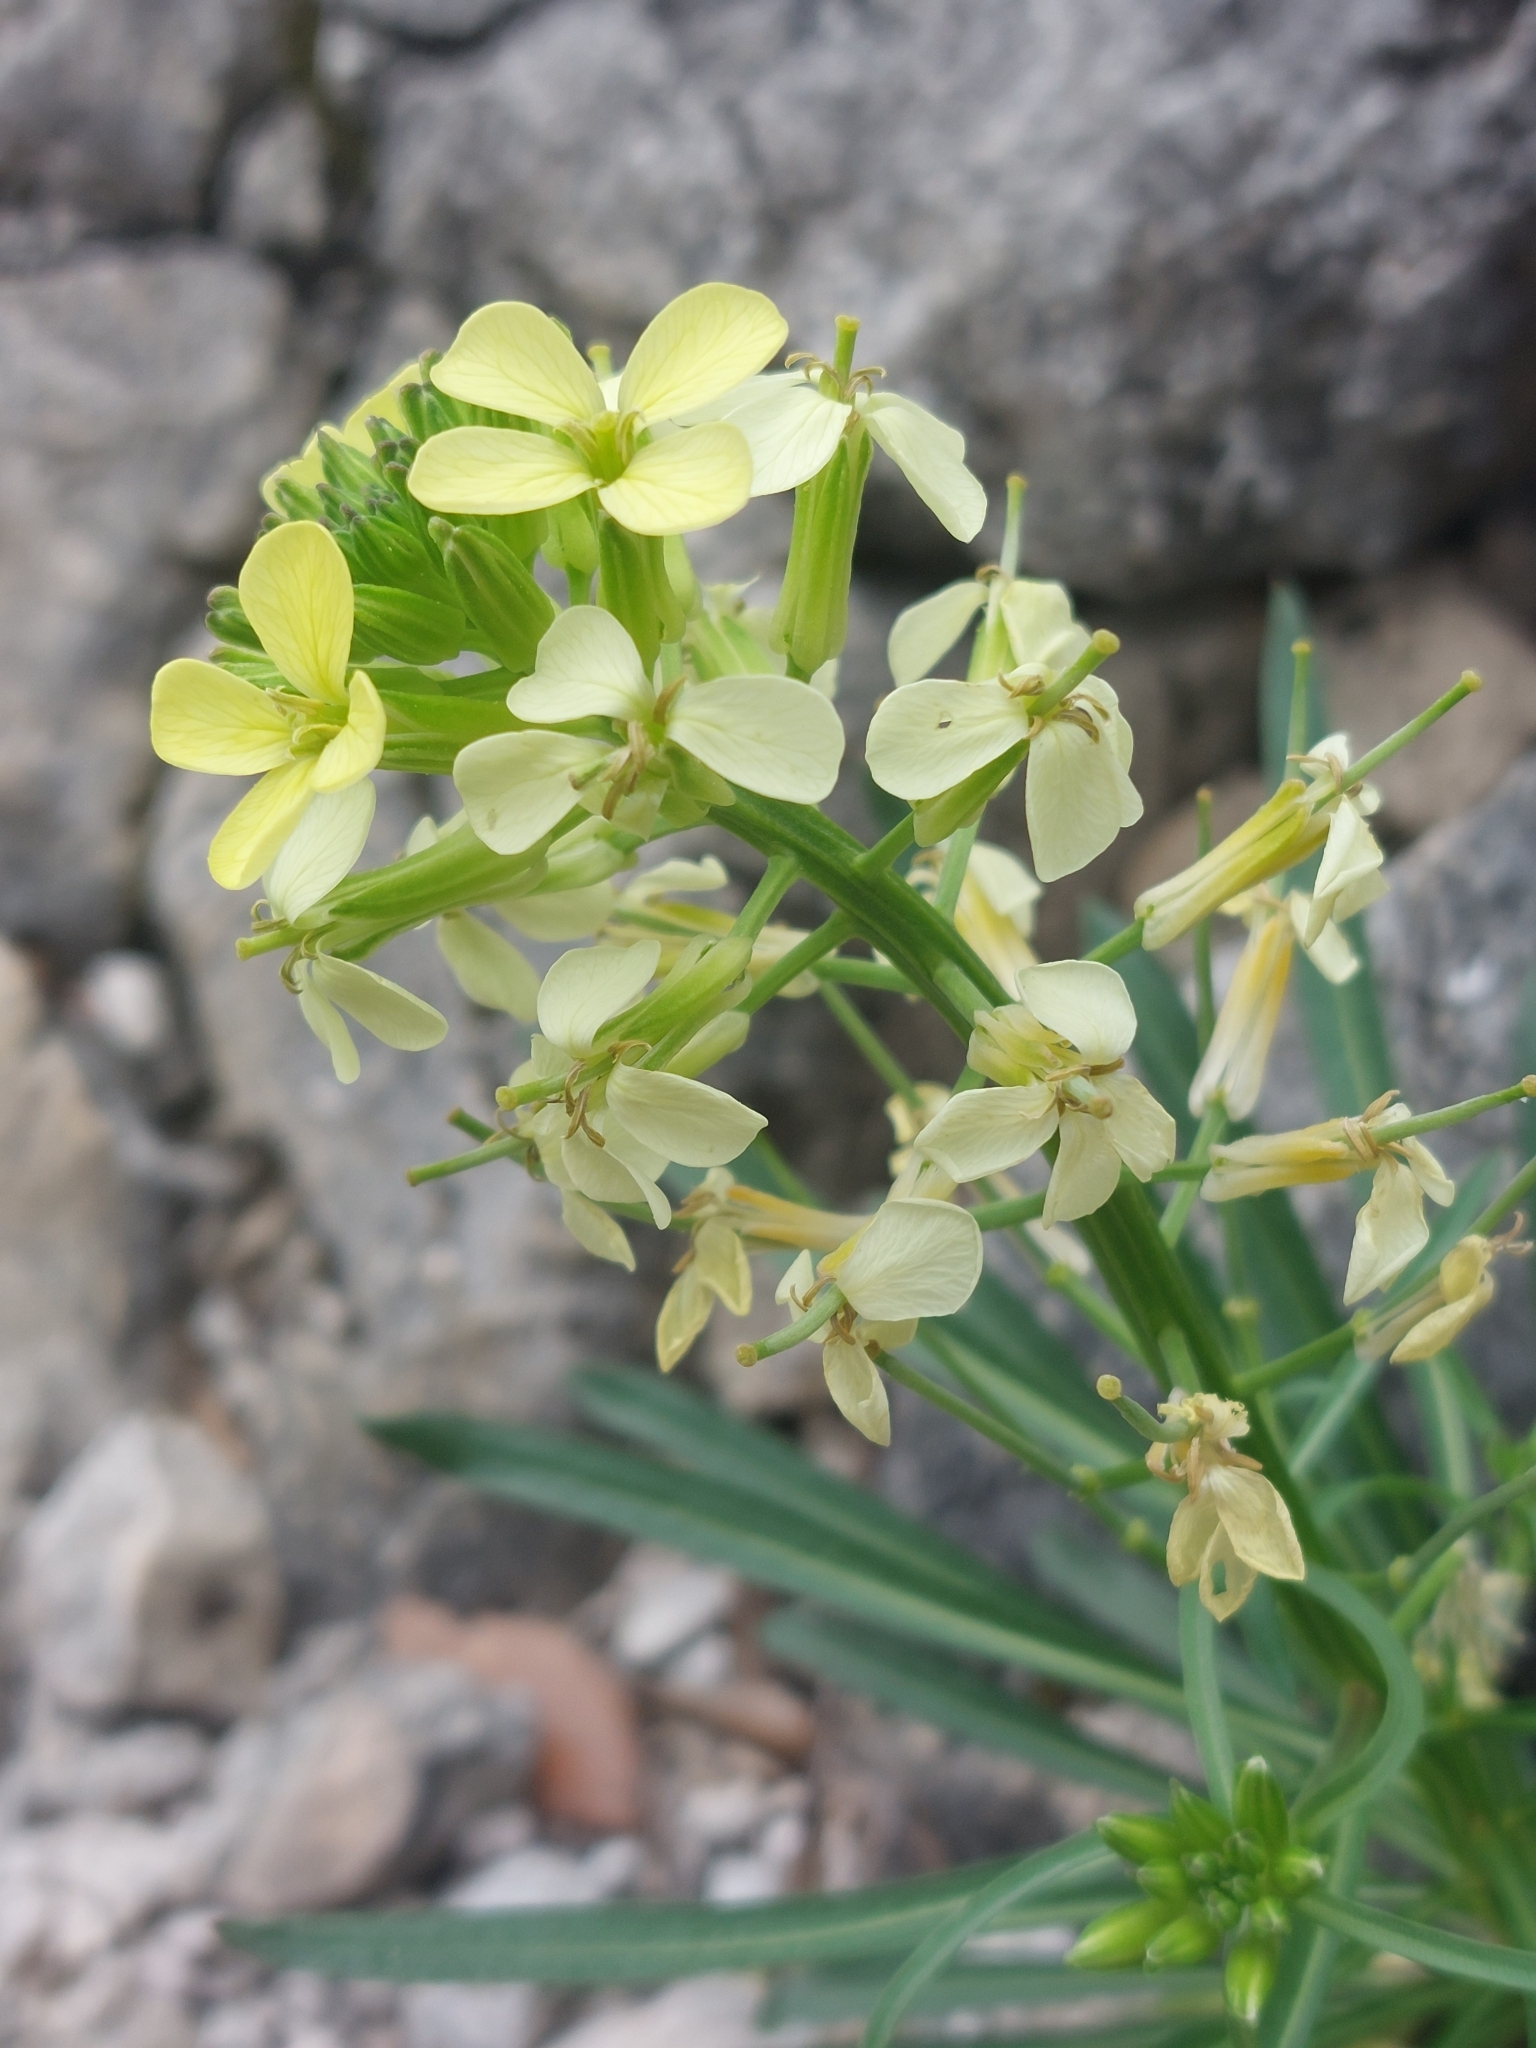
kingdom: Plantae
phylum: Tracheophyta
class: Magnoliopsida
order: Brassicales
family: Brassicaceae
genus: Erysimum
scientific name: Erysimum nevadense
